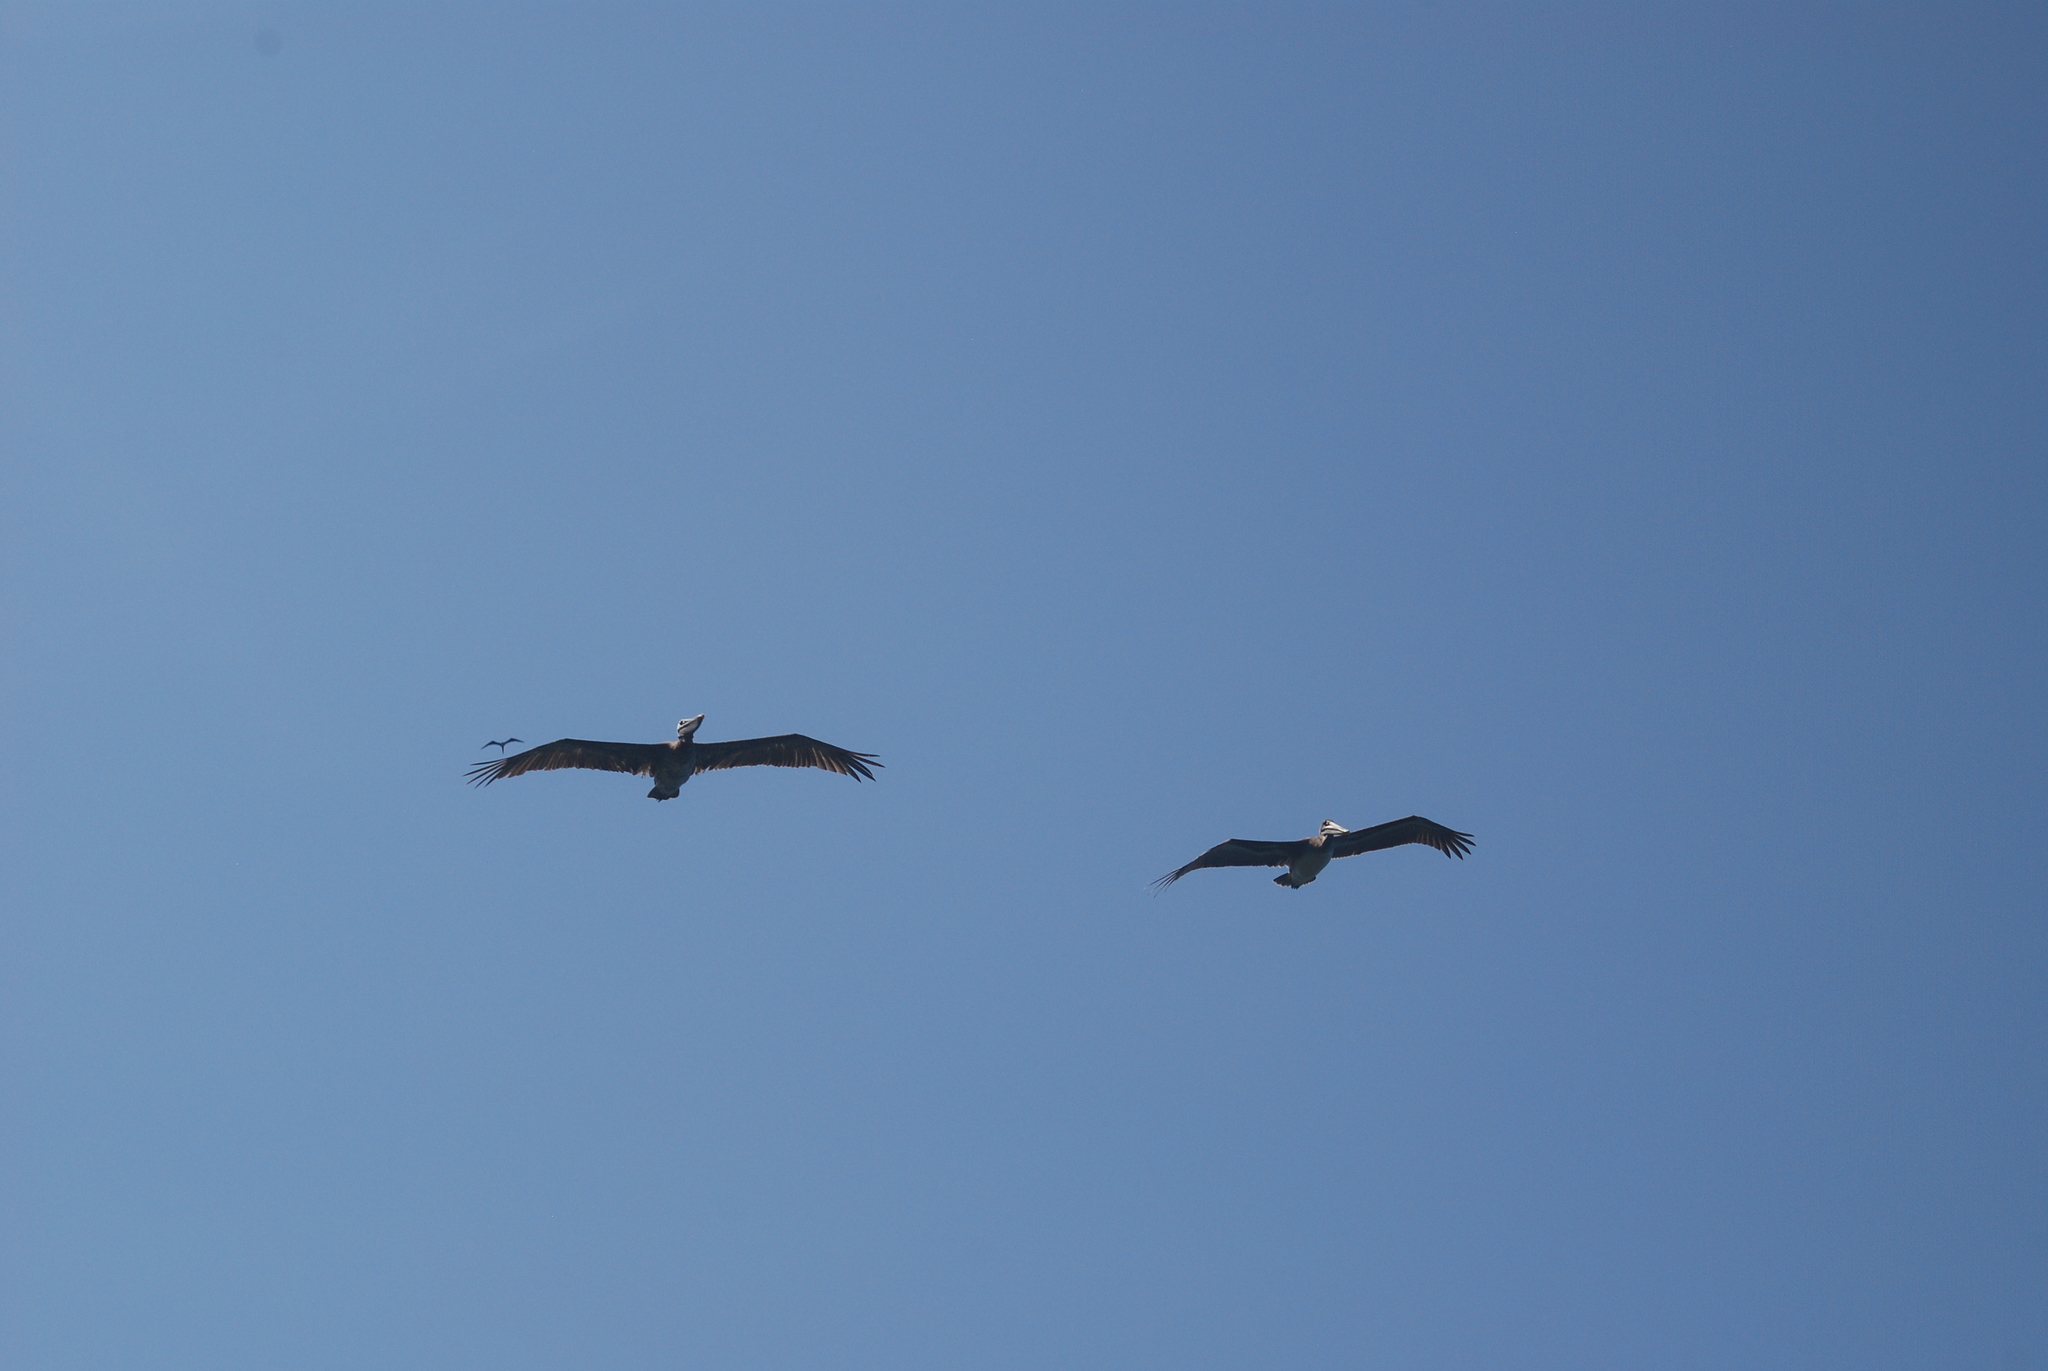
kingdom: Animalia
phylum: Chordata
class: Aves
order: Pelecaniformes
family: Pelecanidae
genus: Pelecanus
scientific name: Pelecanus occidentalis
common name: Brown pelican
